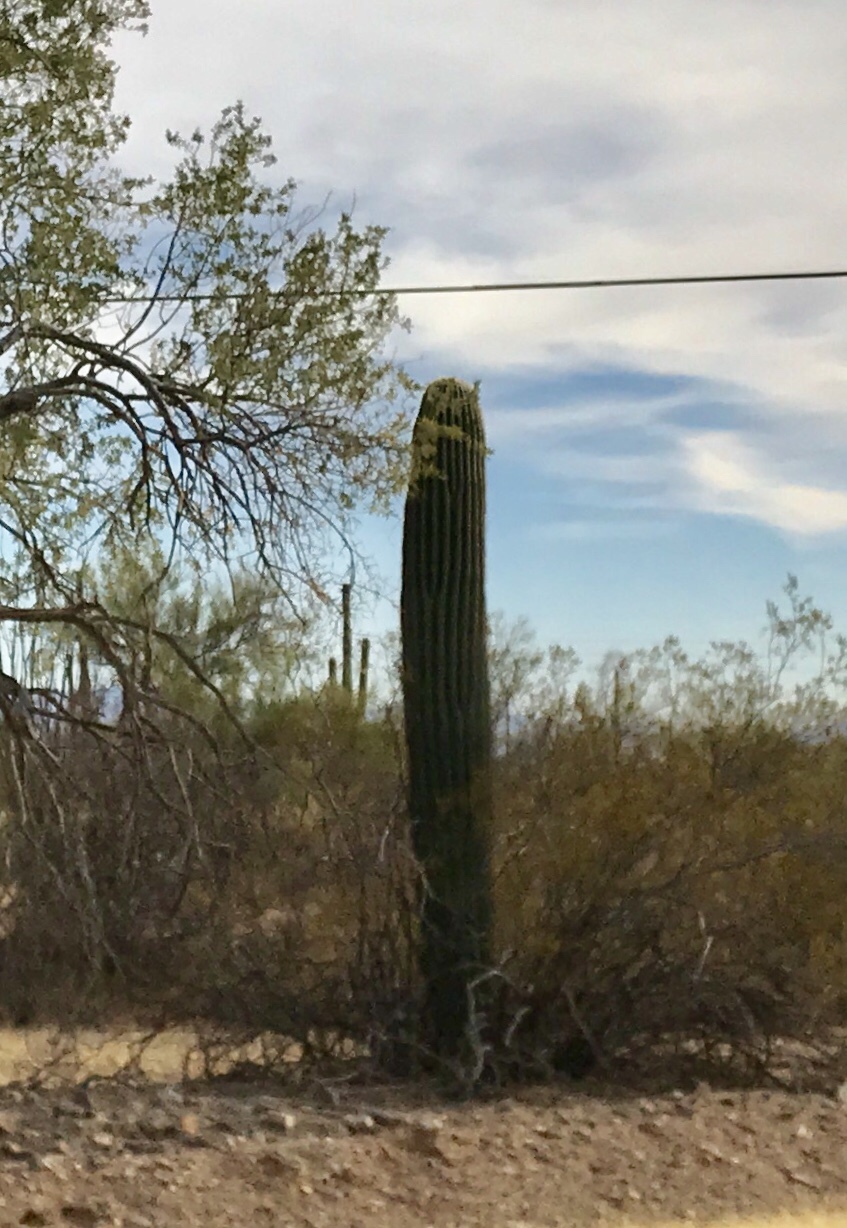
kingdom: Plantae
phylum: Tracheophyta
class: Magnoliopsida
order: Caryophyllales
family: Cactaceae
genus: Carnegiea
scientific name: Carnegiea gigantea
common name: Saguaro
